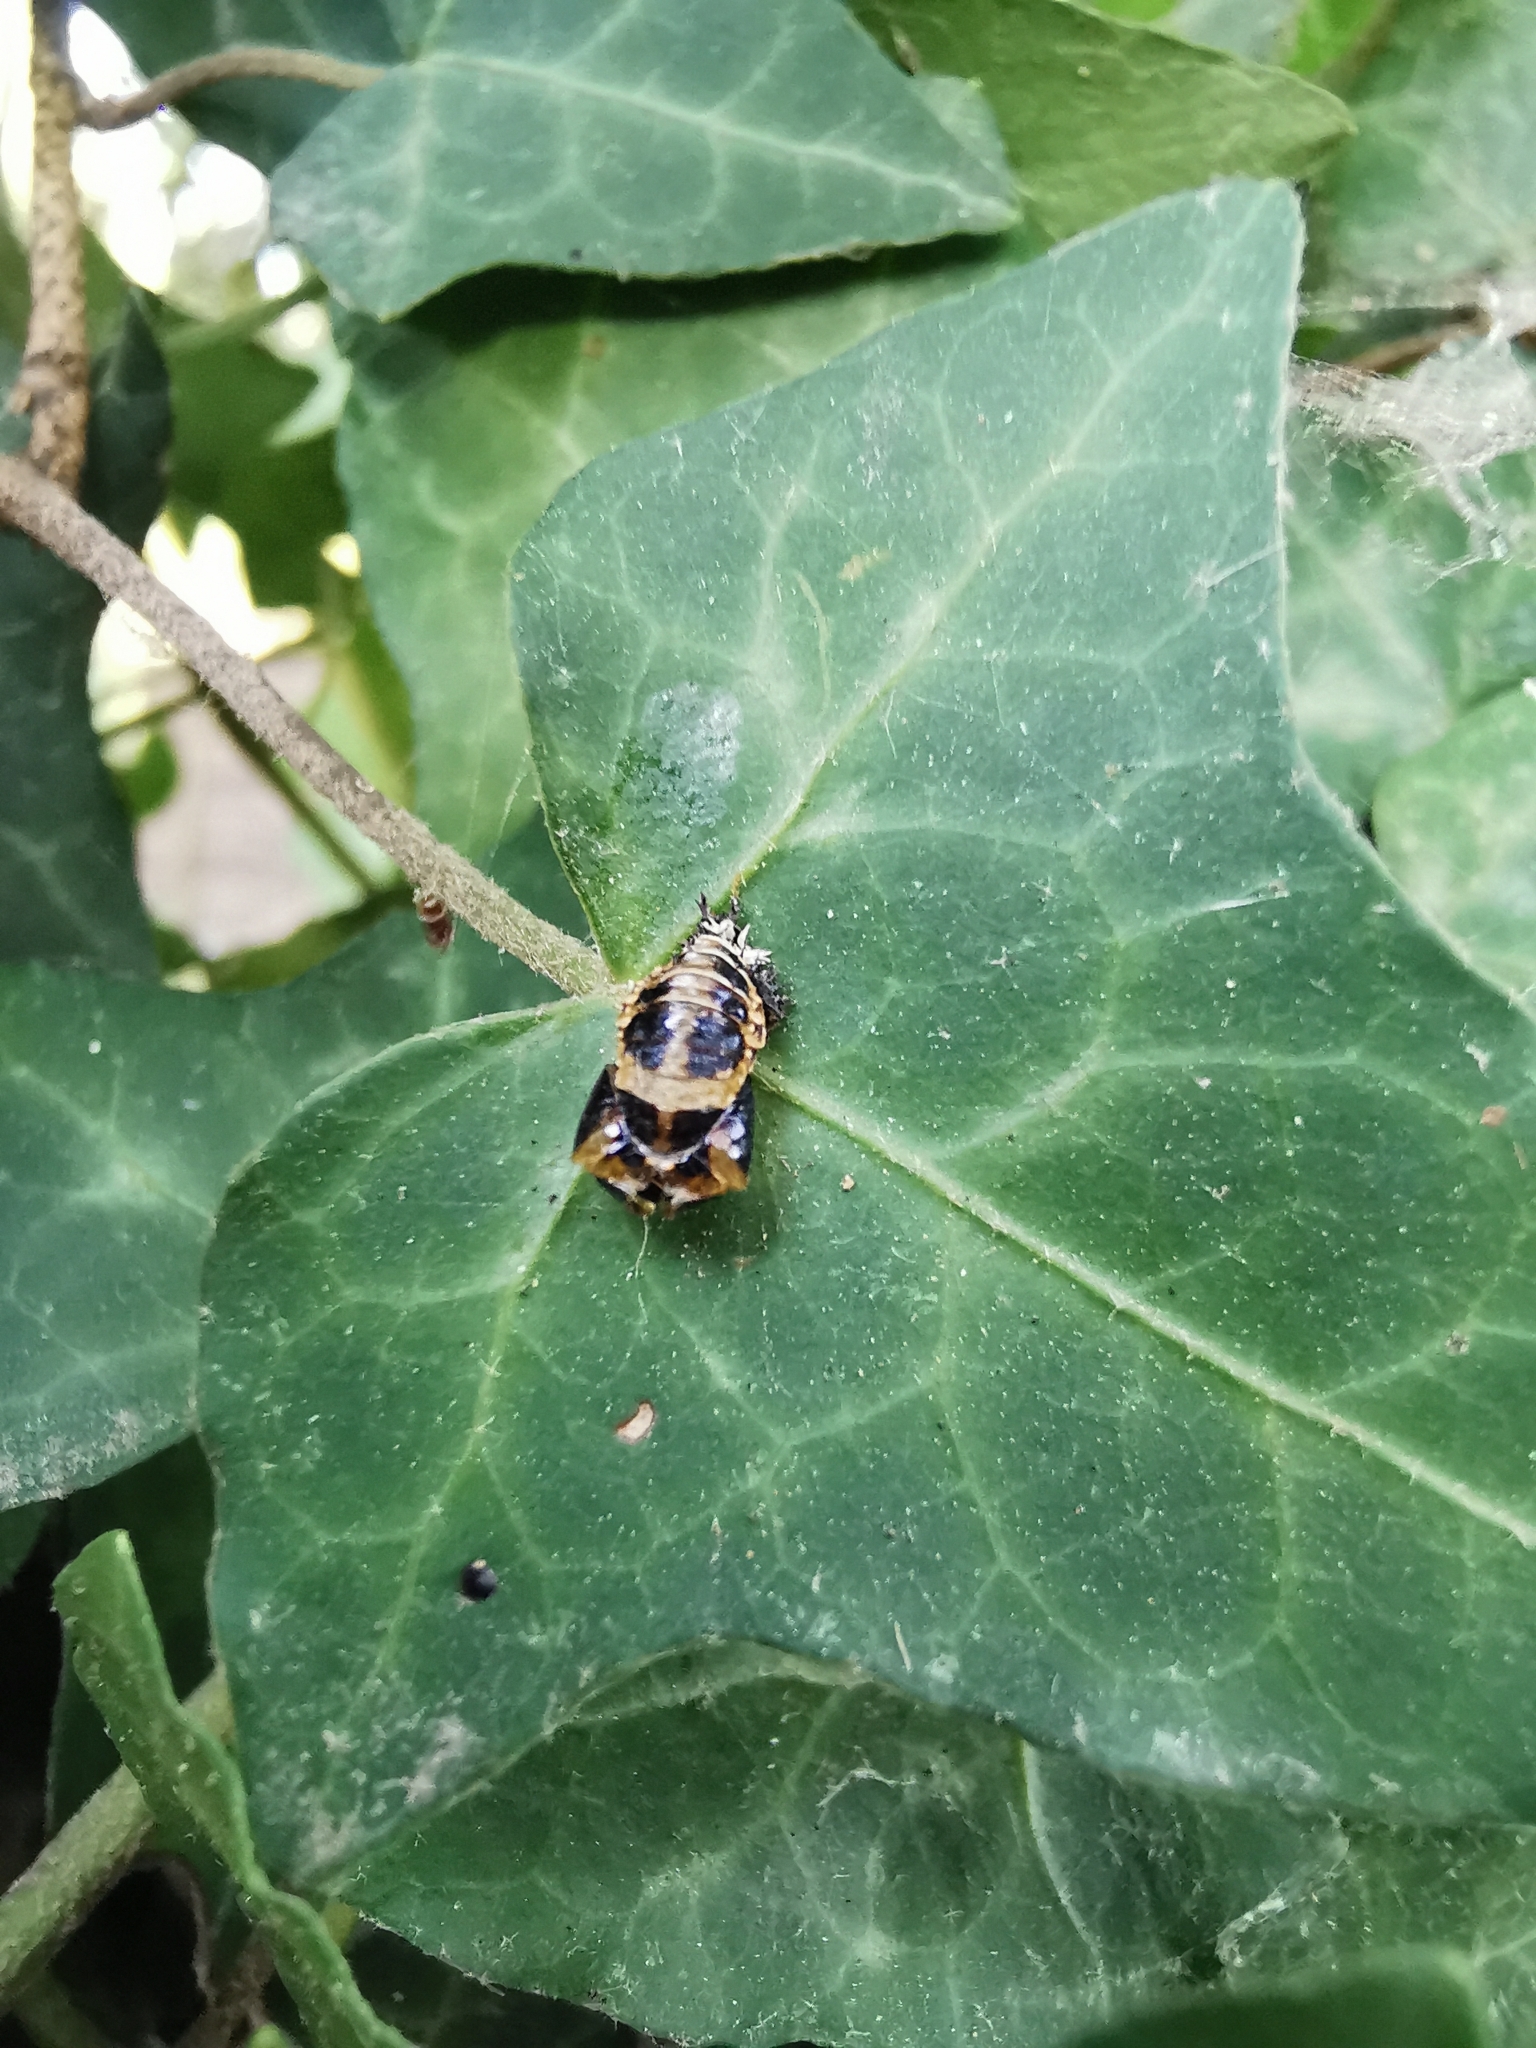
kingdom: Animalia
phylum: Arthropoda
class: Insecta
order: Coleoptera
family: Coccinellidae
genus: Harmonia
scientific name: Harmonia axyridis
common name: Harlequin ladybird
